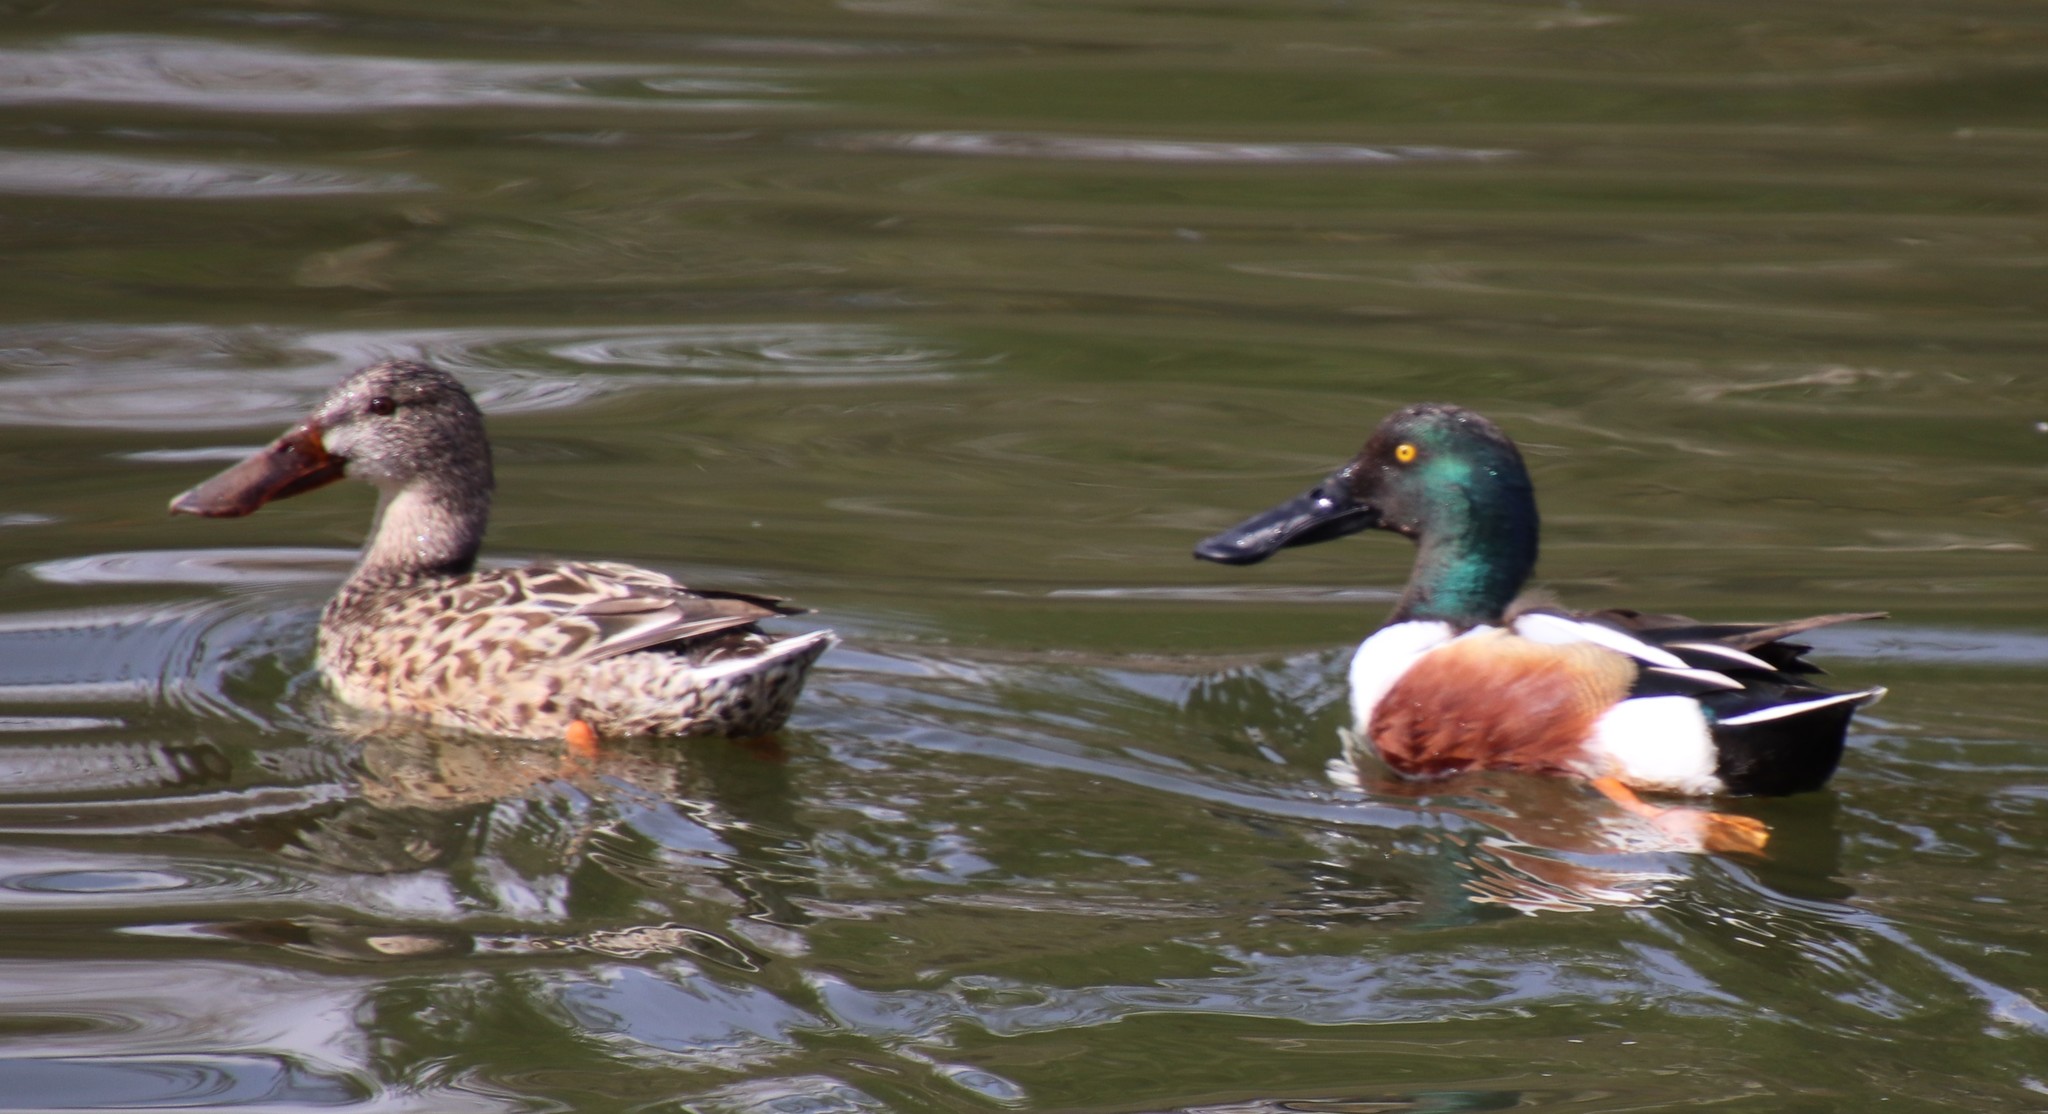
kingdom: Animalia
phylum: Chordata
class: Aves
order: Anseriformes
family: Anatidae
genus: Spatula
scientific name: Spatula clypeata
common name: Northern shoveler
